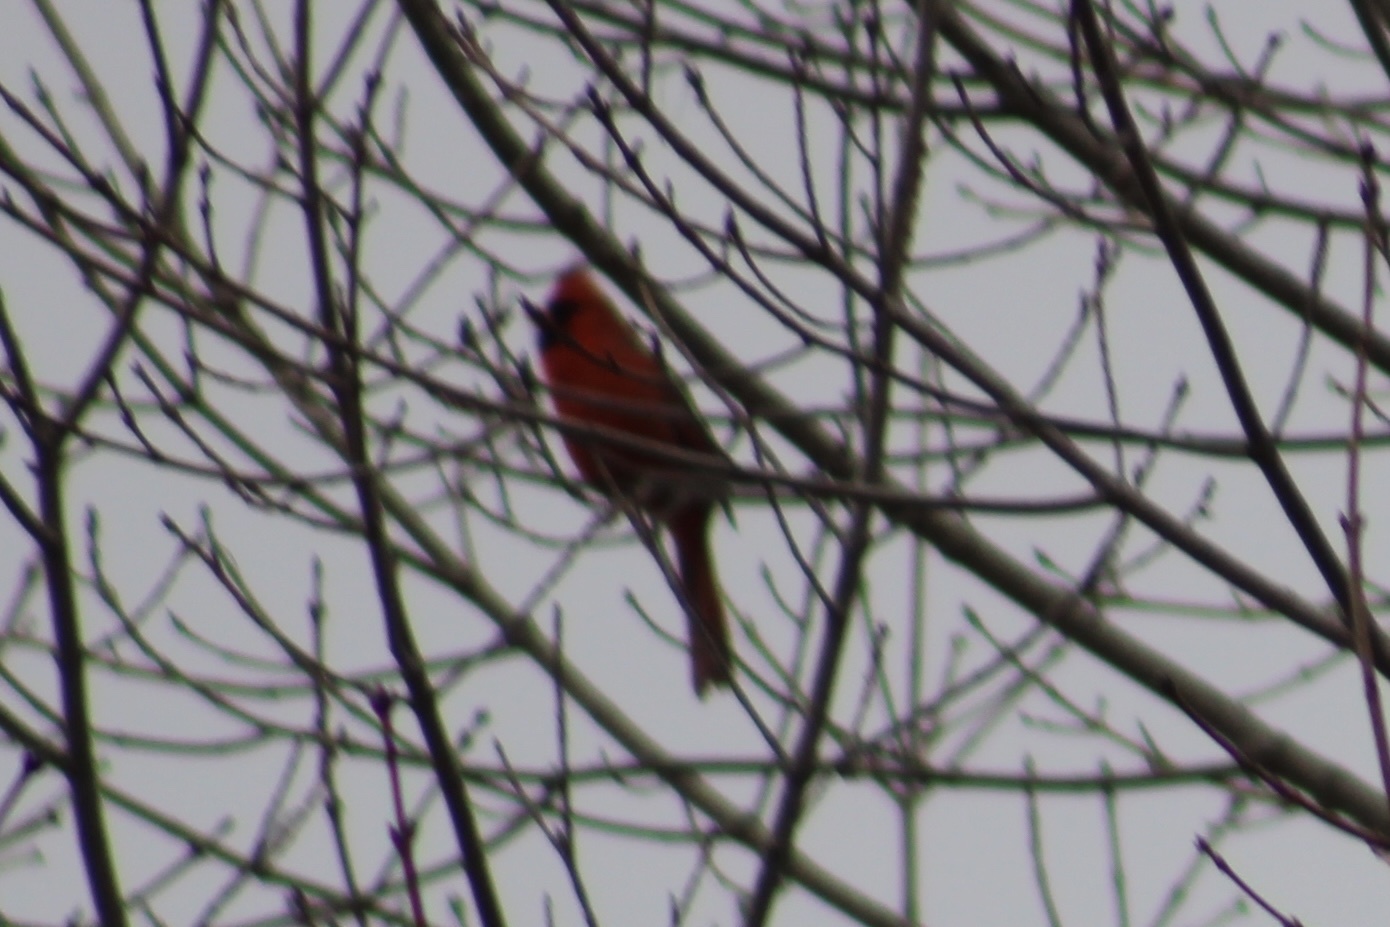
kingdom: Animalia
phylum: Chordata
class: Aves
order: Passeriformes
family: Cardinalidae
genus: Cardinalis
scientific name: Cardinalis cardinalis
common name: Northern cardinal
